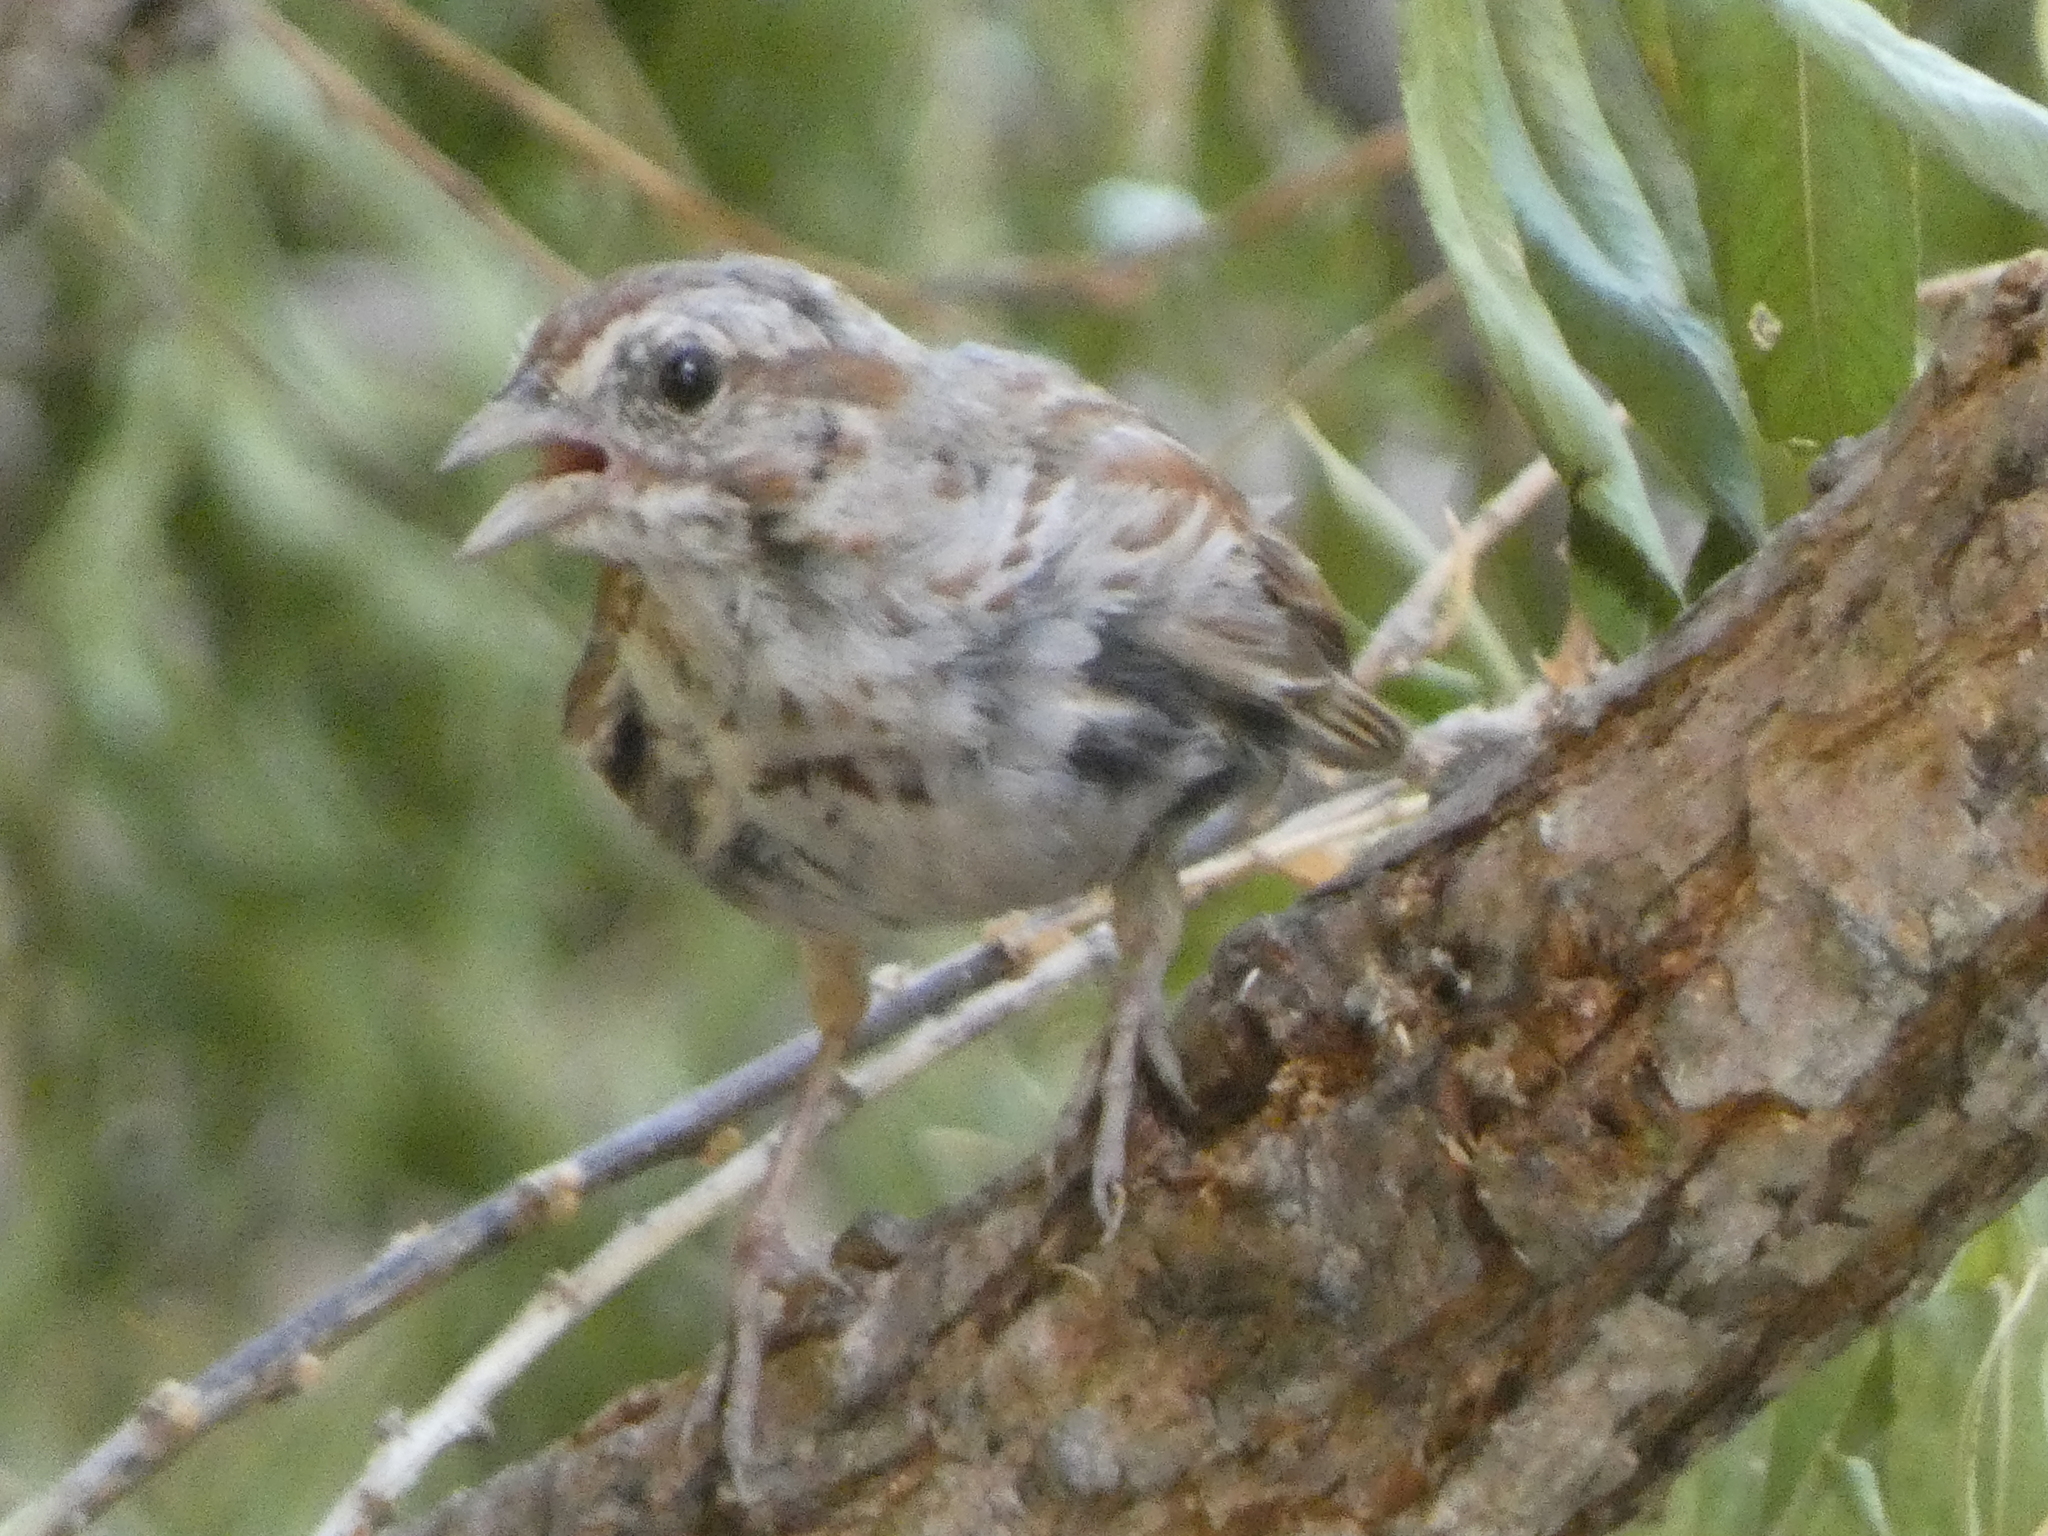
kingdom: Animalia
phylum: Chordata
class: Aves
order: Passeriformes
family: Passerellidae
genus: Melospiza
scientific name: Melospiza melodia
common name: Song sparrow
